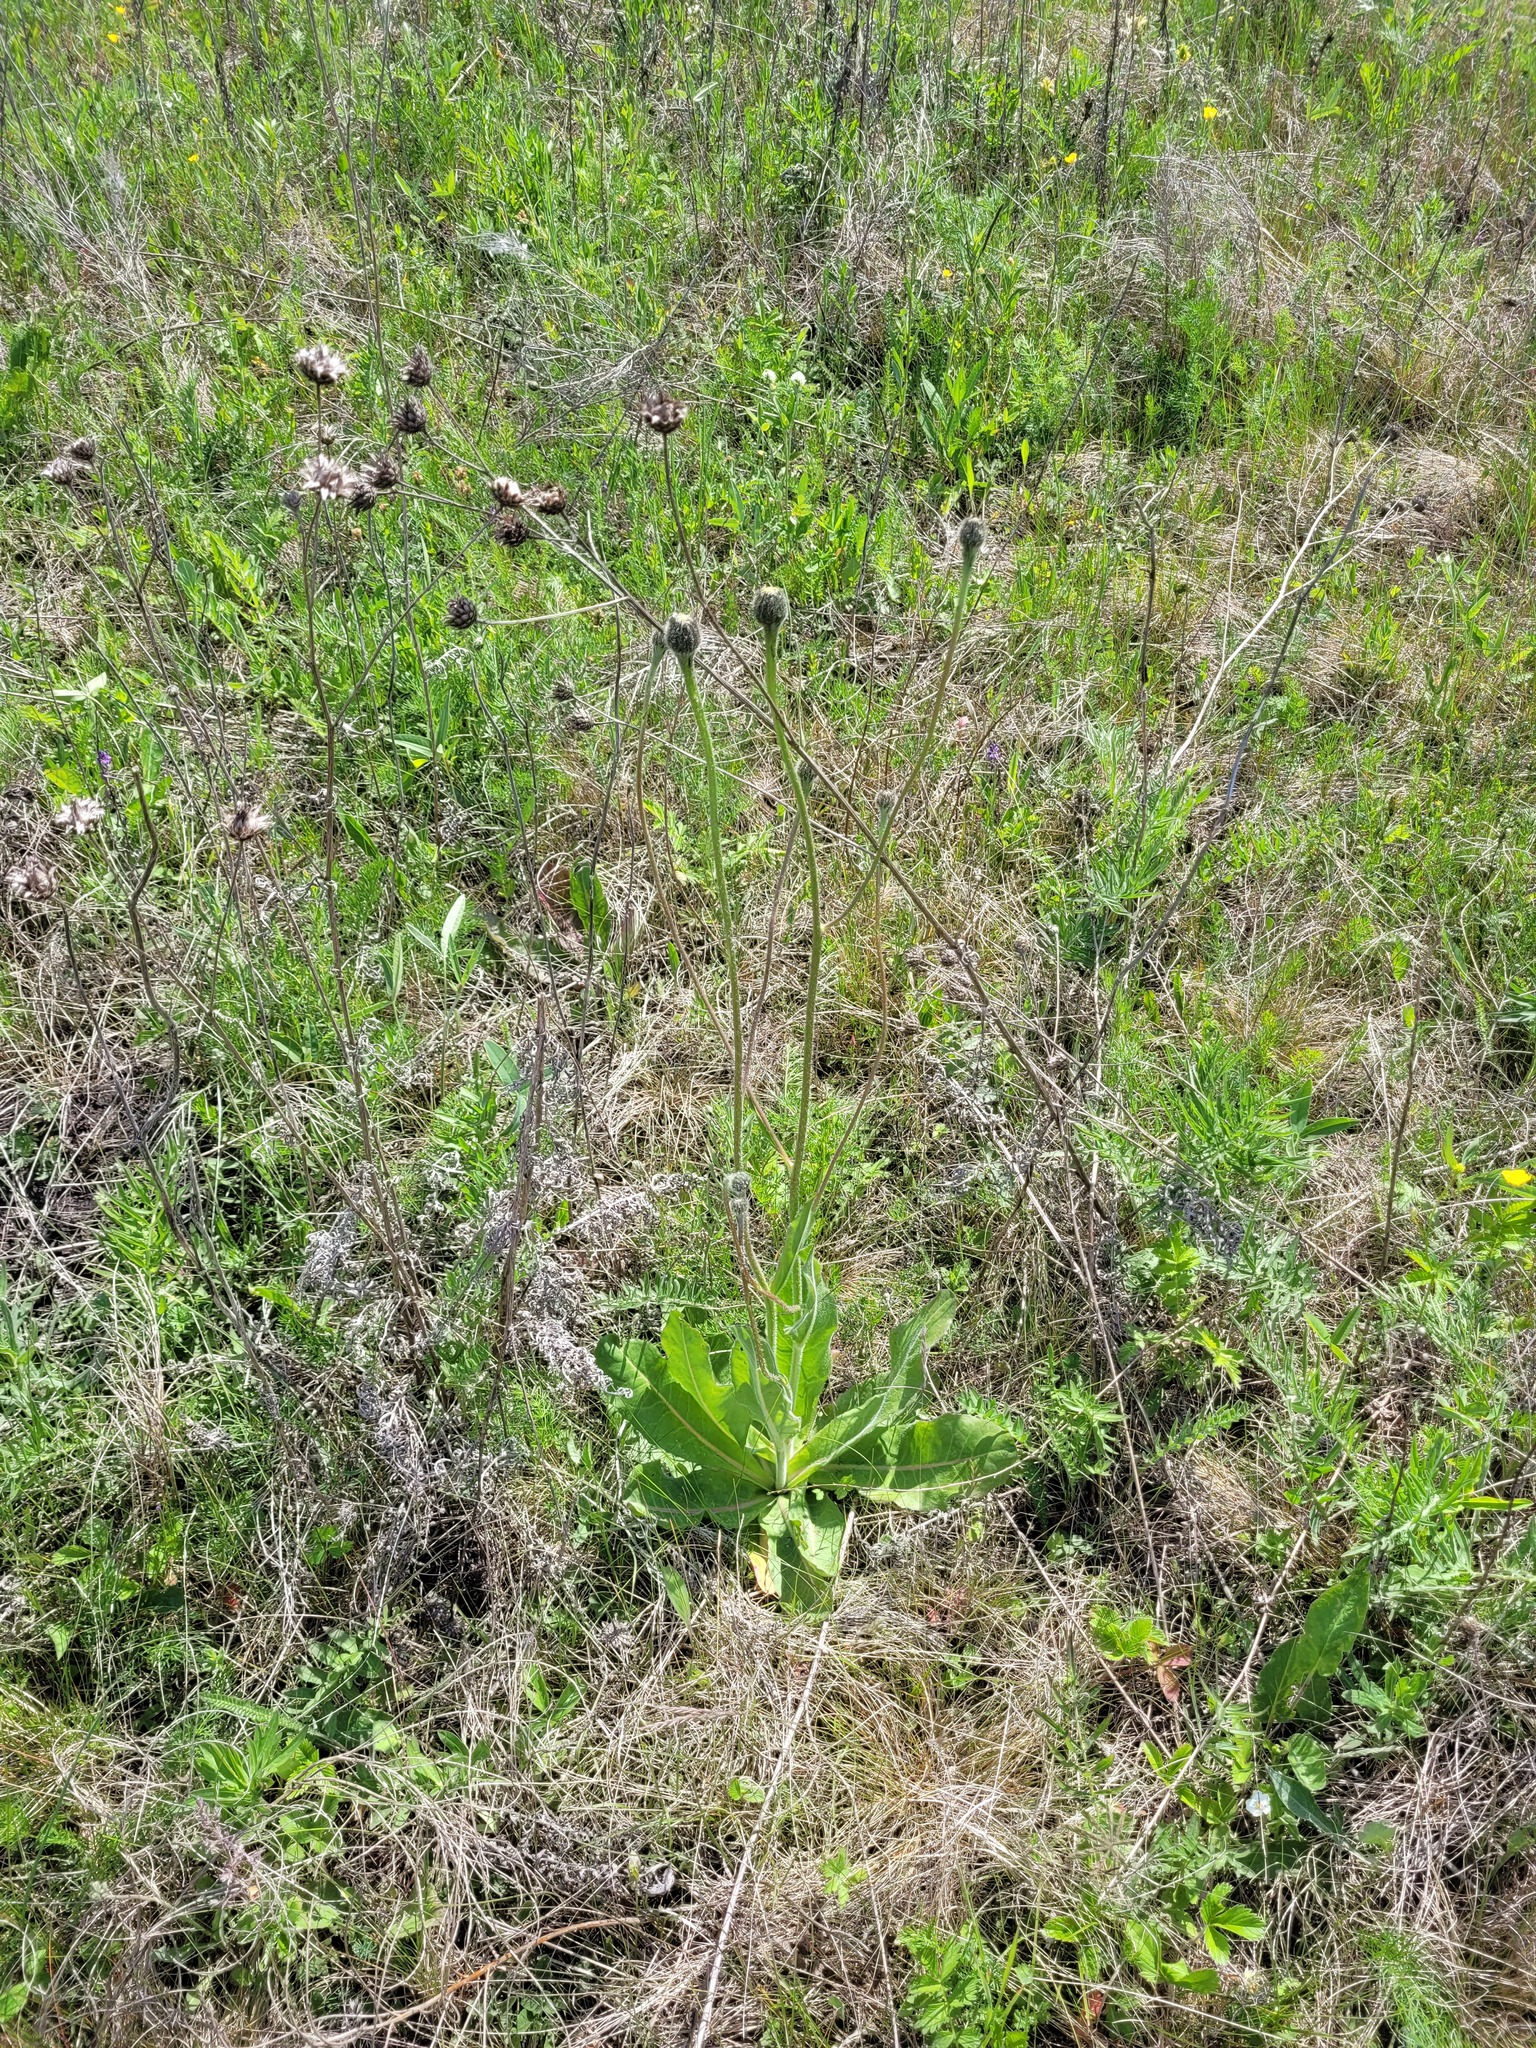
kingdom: Plantae
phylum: Tracheophyta
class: Magnoliopsida
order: Asterales
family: Asteraceae
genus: Trommsdorffia
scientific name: Trommsdorffia maculata
